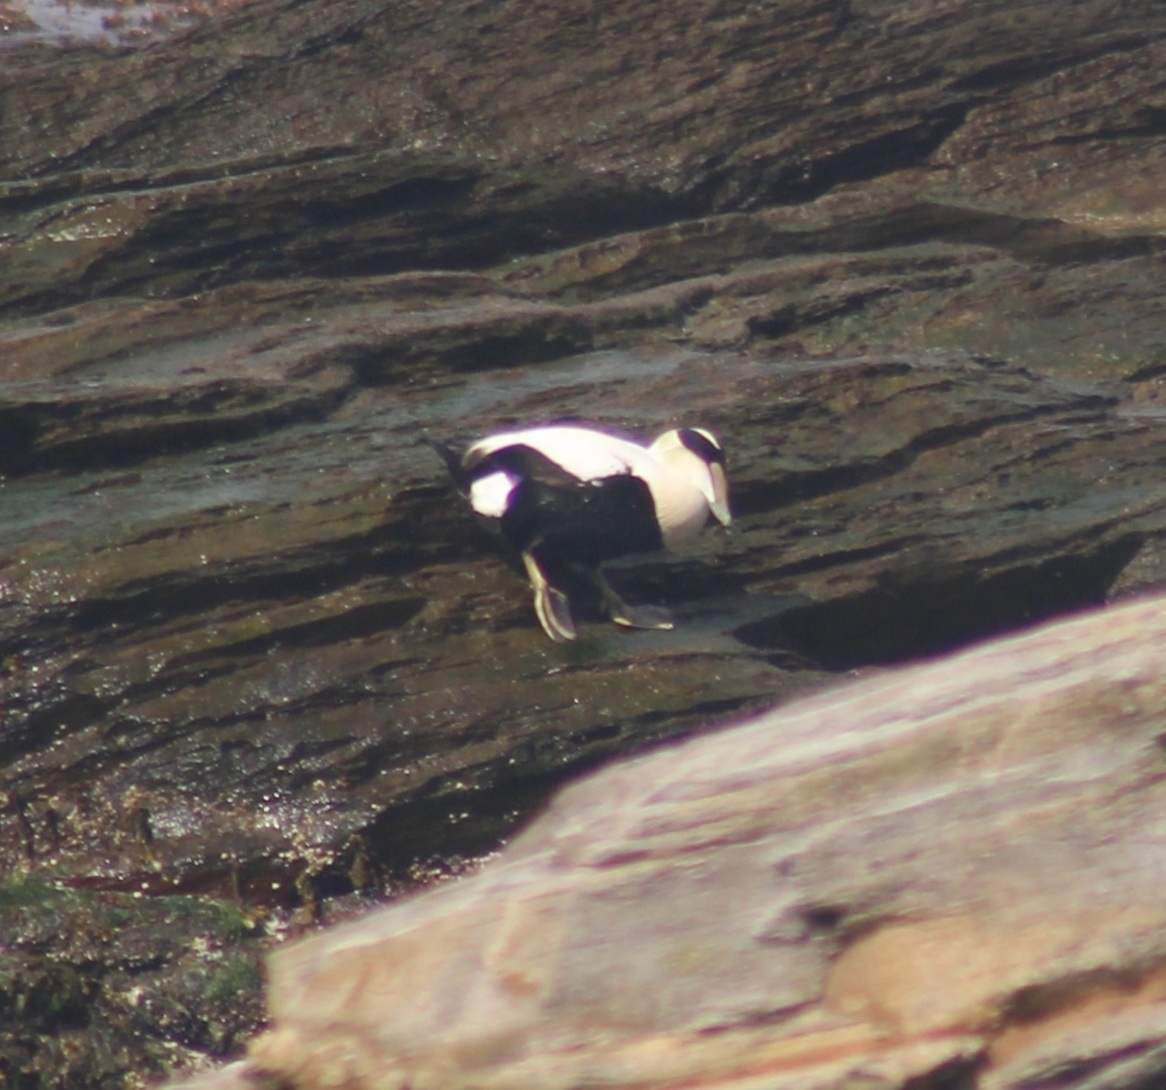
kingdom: Animalia
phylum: Chordata
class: Aves
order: Anseriformes
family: Anatidae
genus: Somateria
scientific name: Somateria mollissima
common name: Common eider
